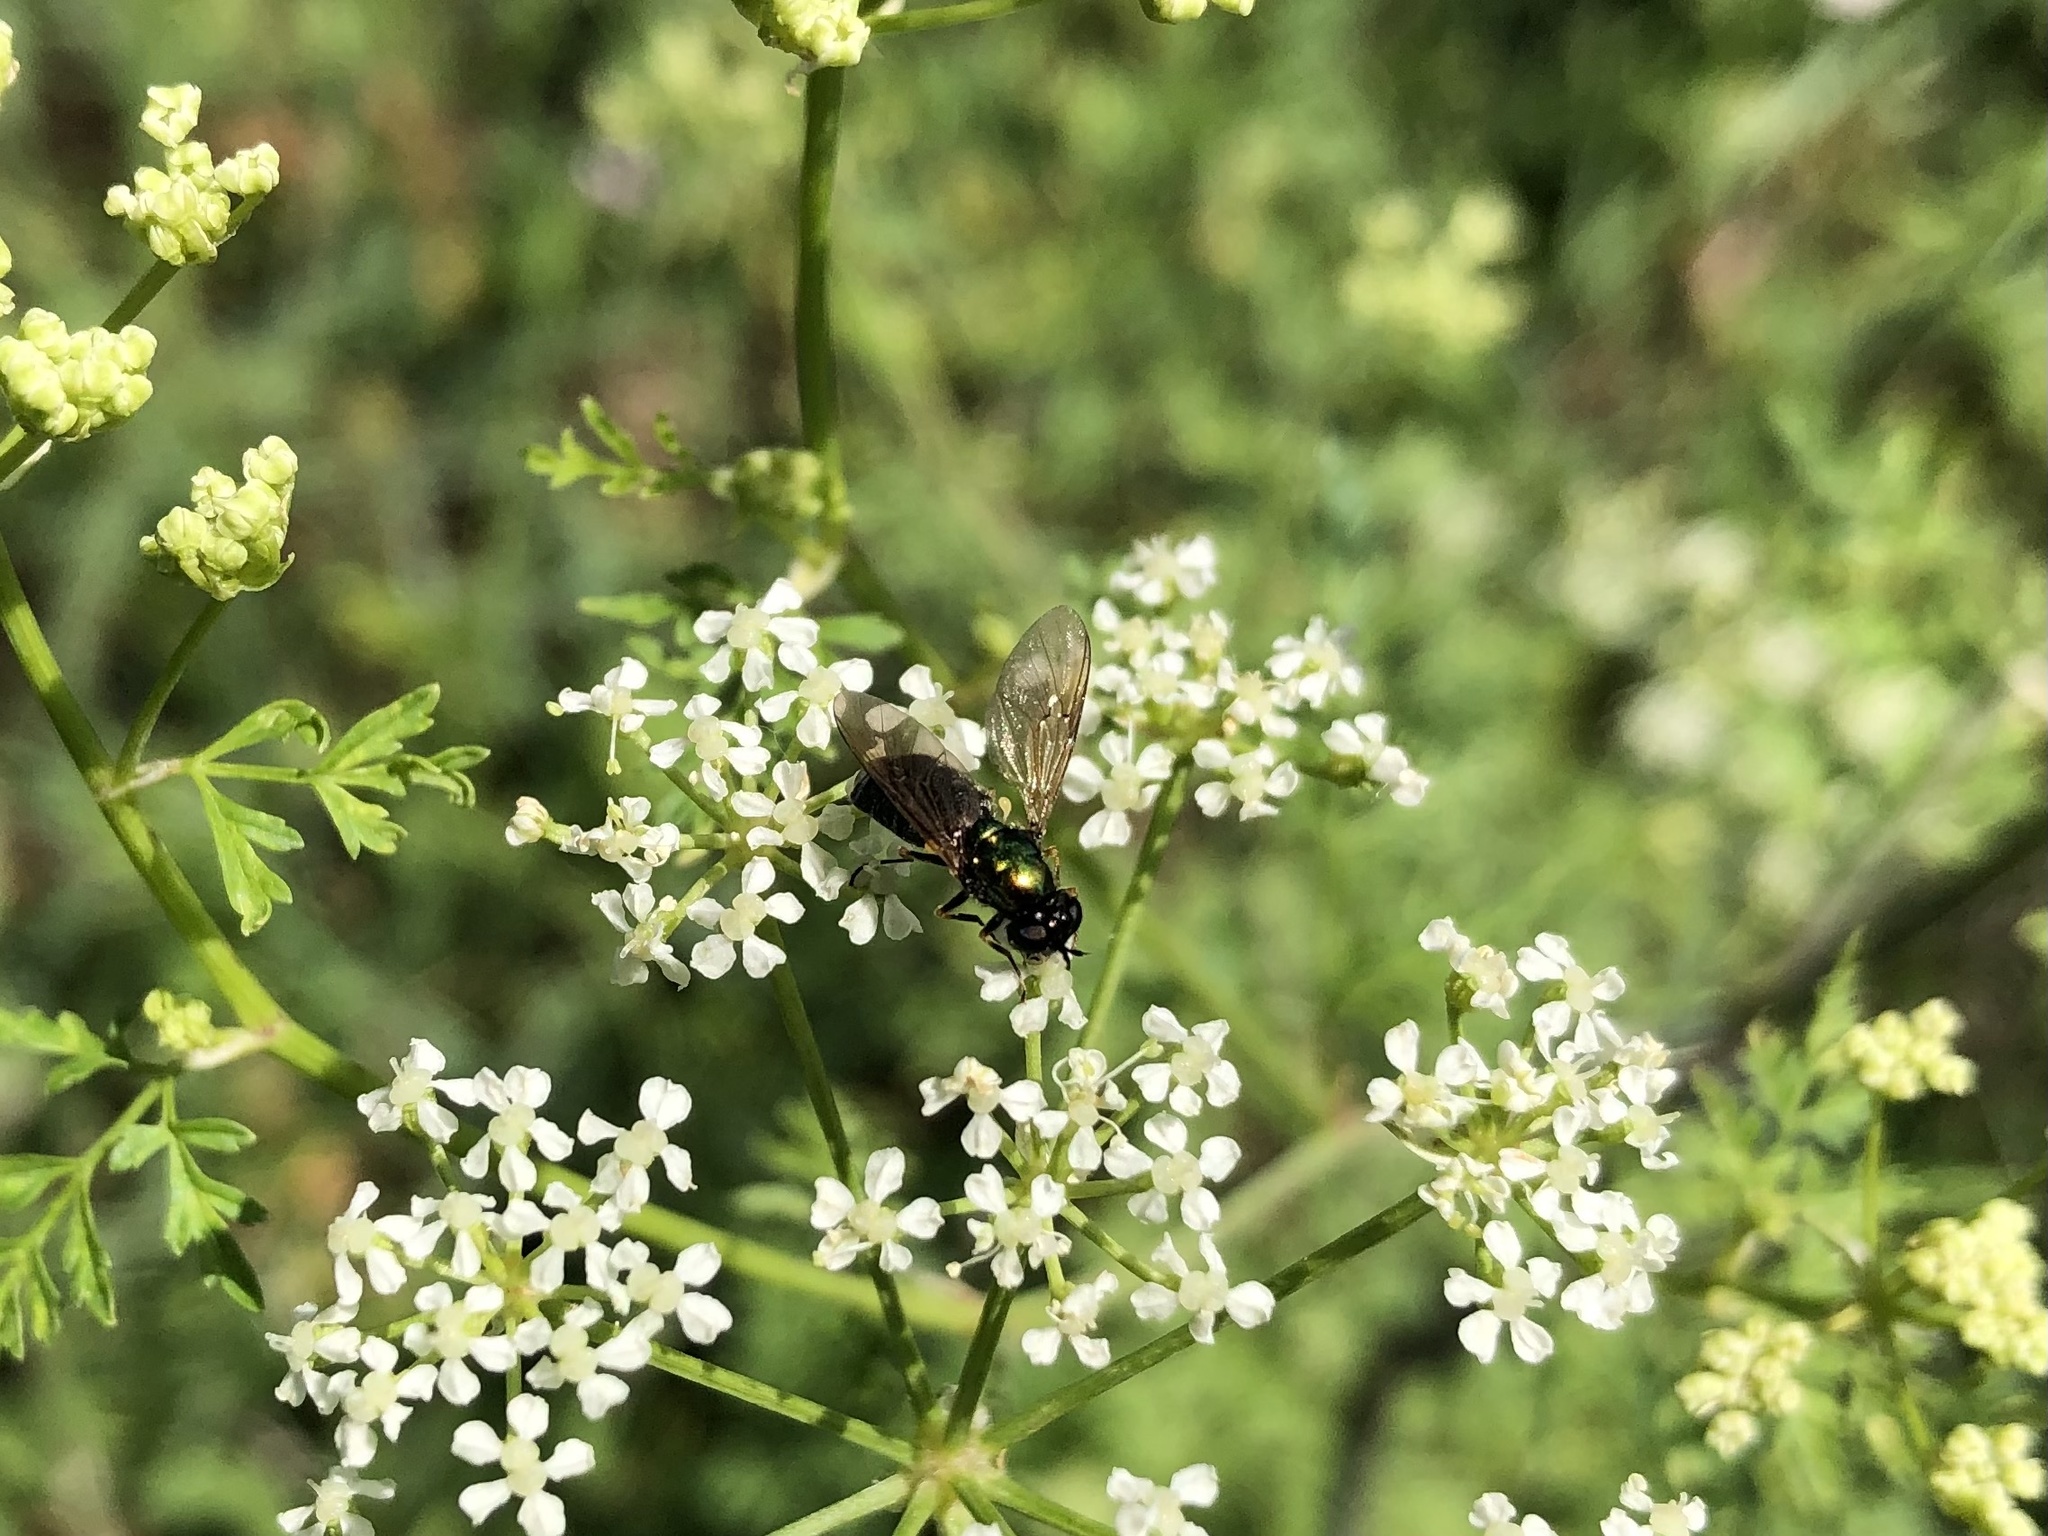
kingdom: Animalia
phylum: Arthropoda
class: Insecta
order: Diptera
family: Stratiomyidae
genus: Chloromyia
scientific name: Chloromyia formosa
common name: Soldier fly
